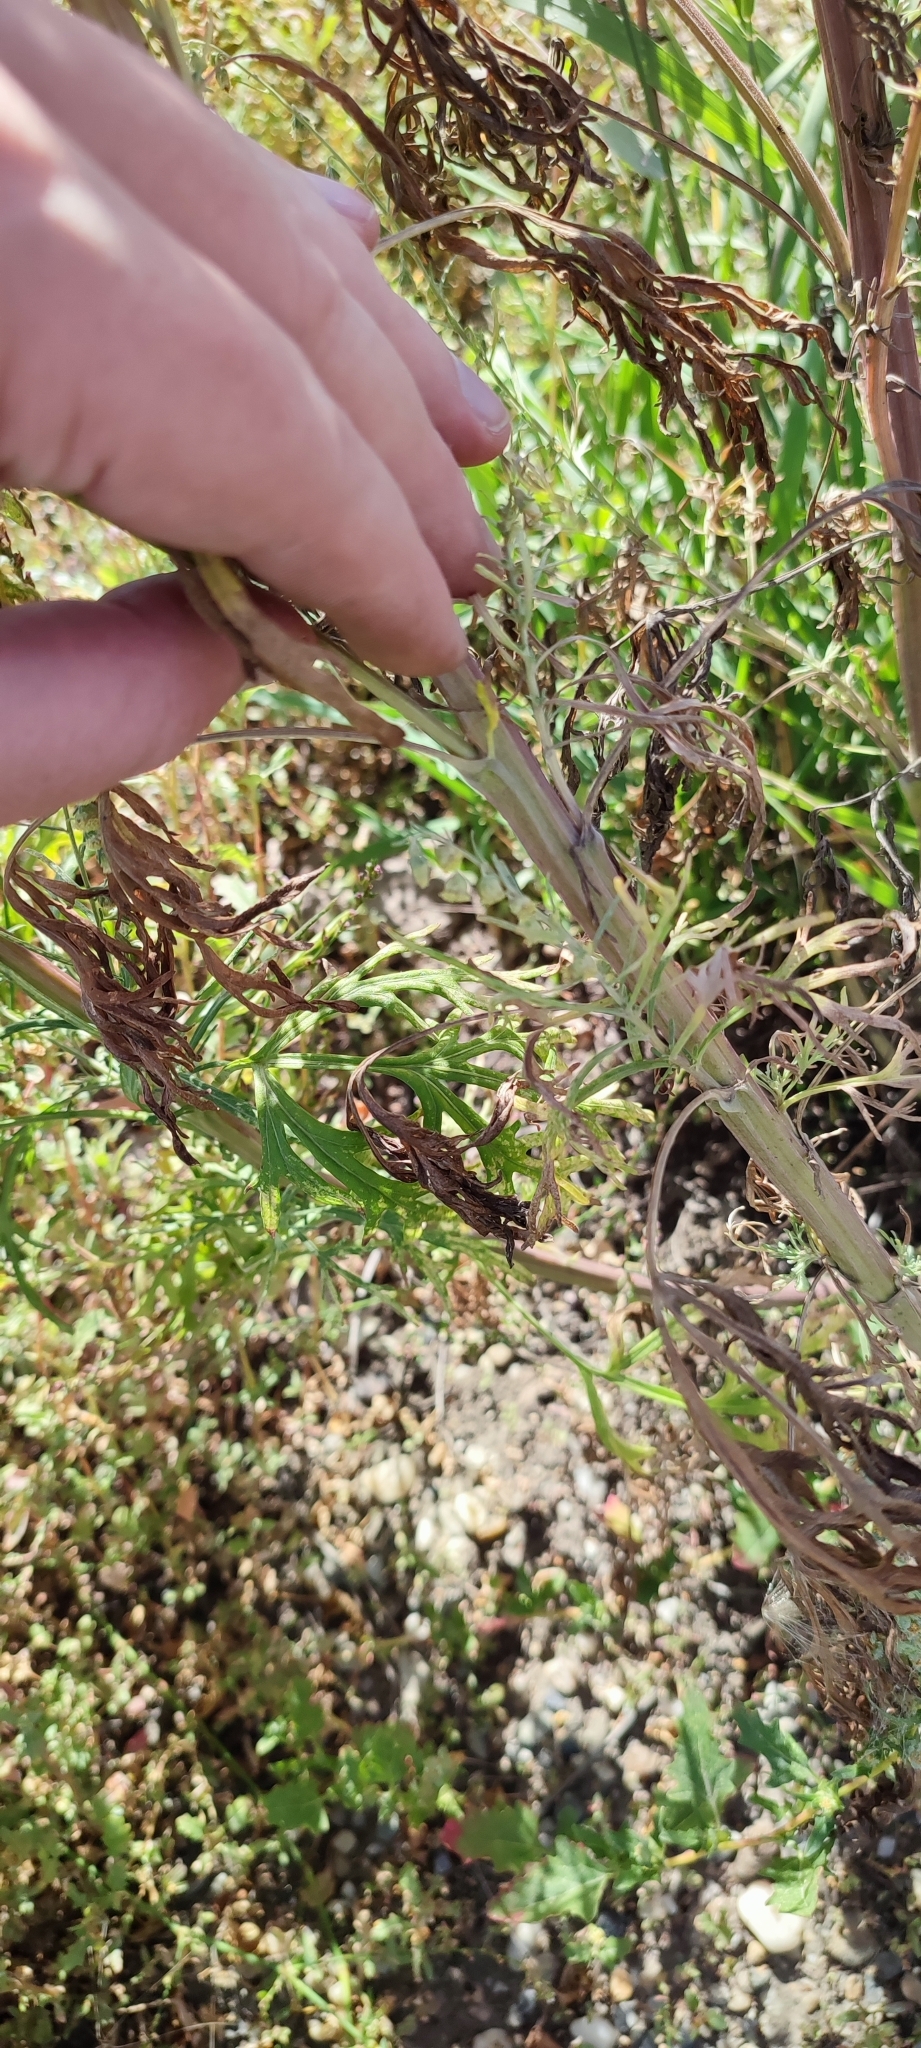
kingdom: Plantae
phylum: Tracheophyta
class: Magnoliopsida
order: Asterales
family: Asteraceae
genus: Artemisia
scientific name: Artemisia sieversiana
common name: Sieversian wormwood
